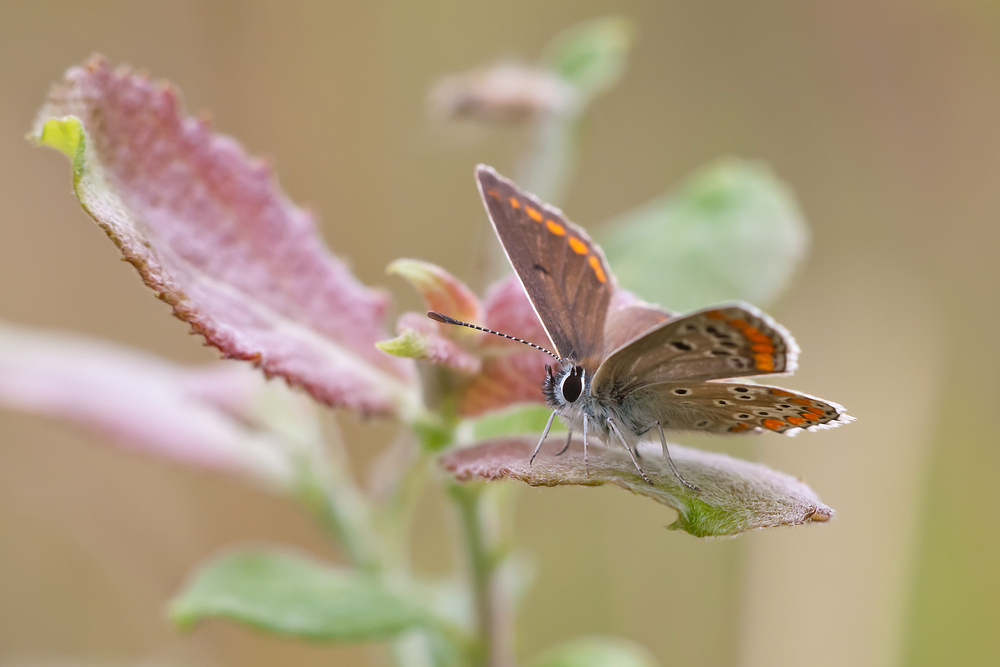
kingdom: Animalia
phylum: Arthropoda
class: Insecta
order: Lepidoptera
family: Lycaenidae
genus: Aricia
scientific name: Aricia agestis
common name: Brown argus
